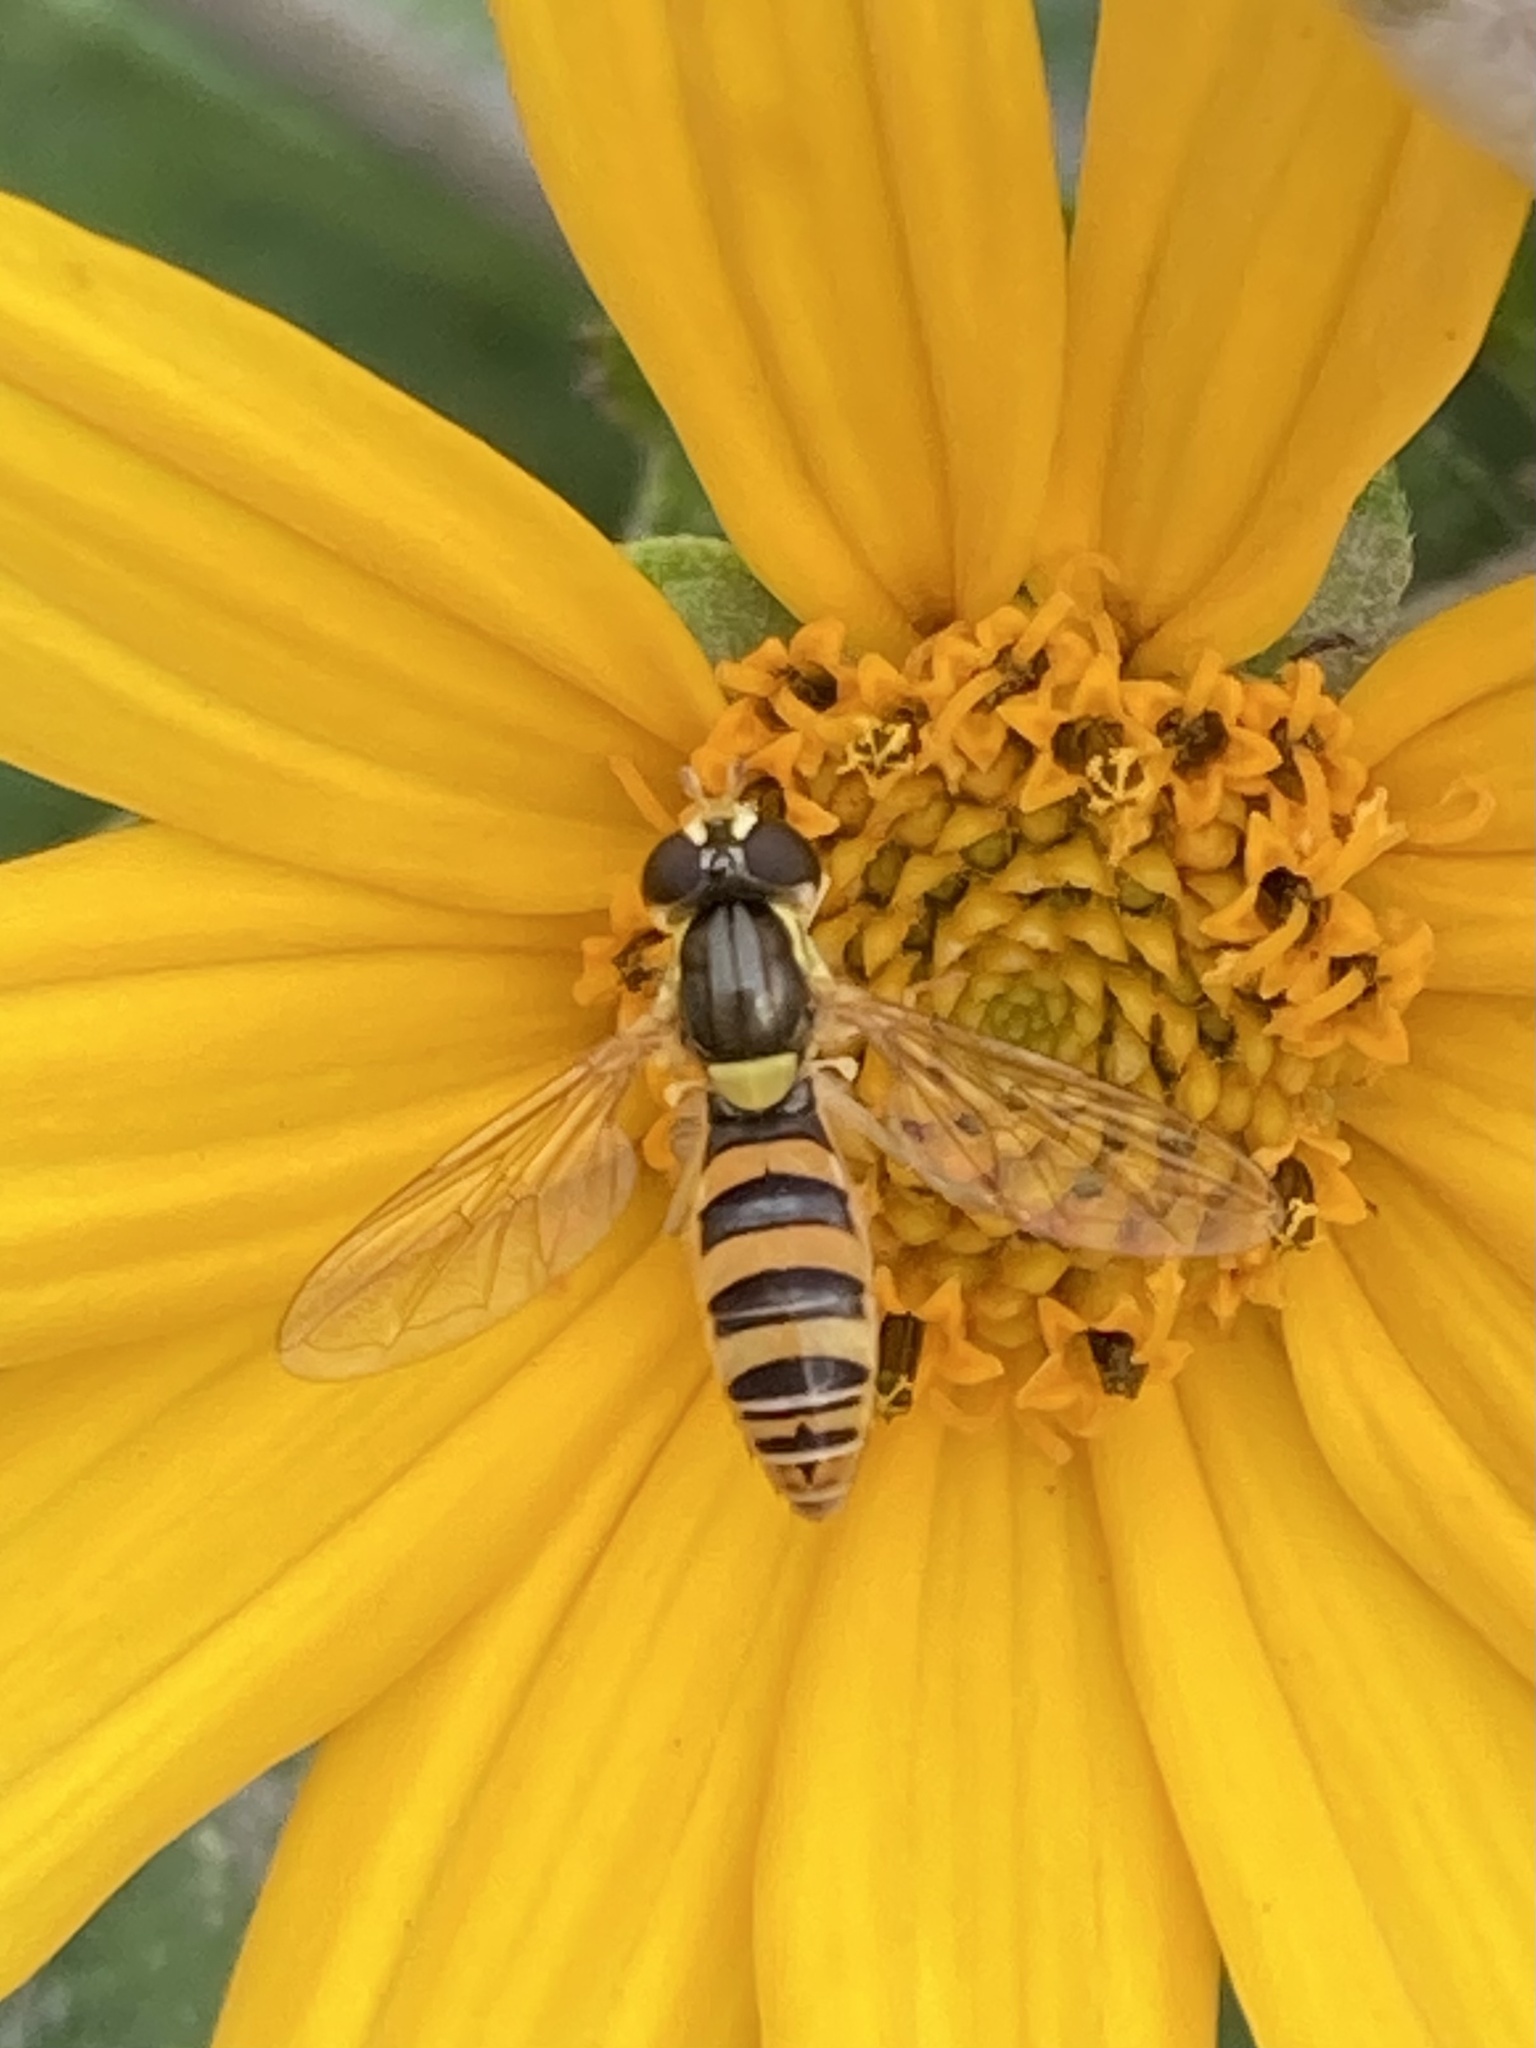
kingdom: Animalia
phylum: Arthropoda
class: Insecta
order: Diptera
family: Syrphidae
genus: Sphaerophoria
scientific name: Sphaerophoria contigua
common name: Tufted globetail
